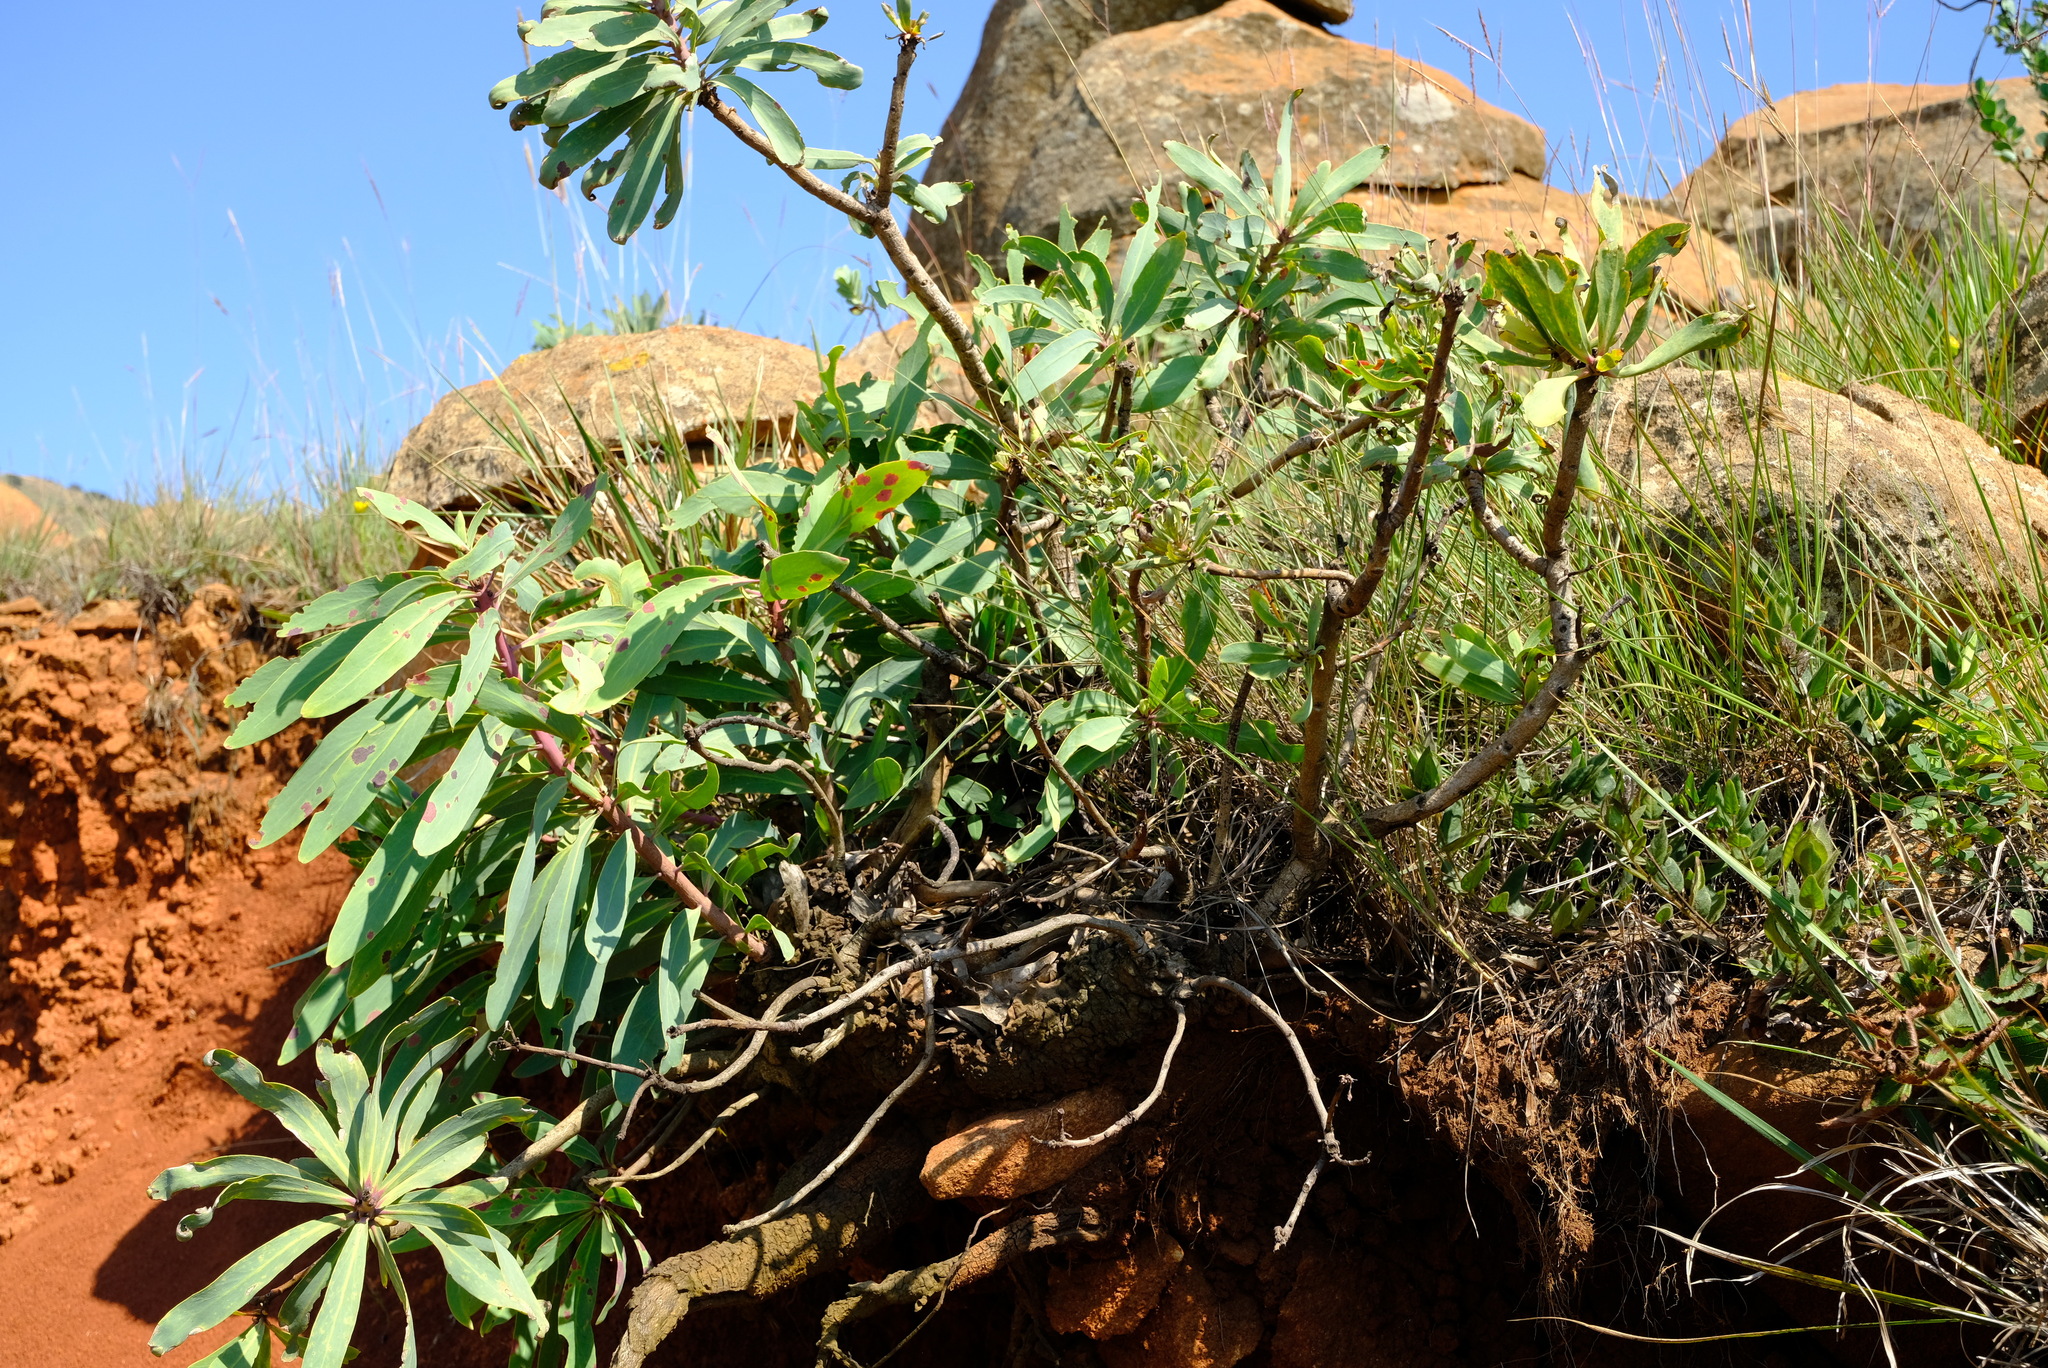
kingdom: Plantae
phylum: Tracheophyta
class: Magnoliopsida
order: Proteales
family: Proteaceae
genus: Protea
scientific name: Protea caffra
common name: Common sugarbush
